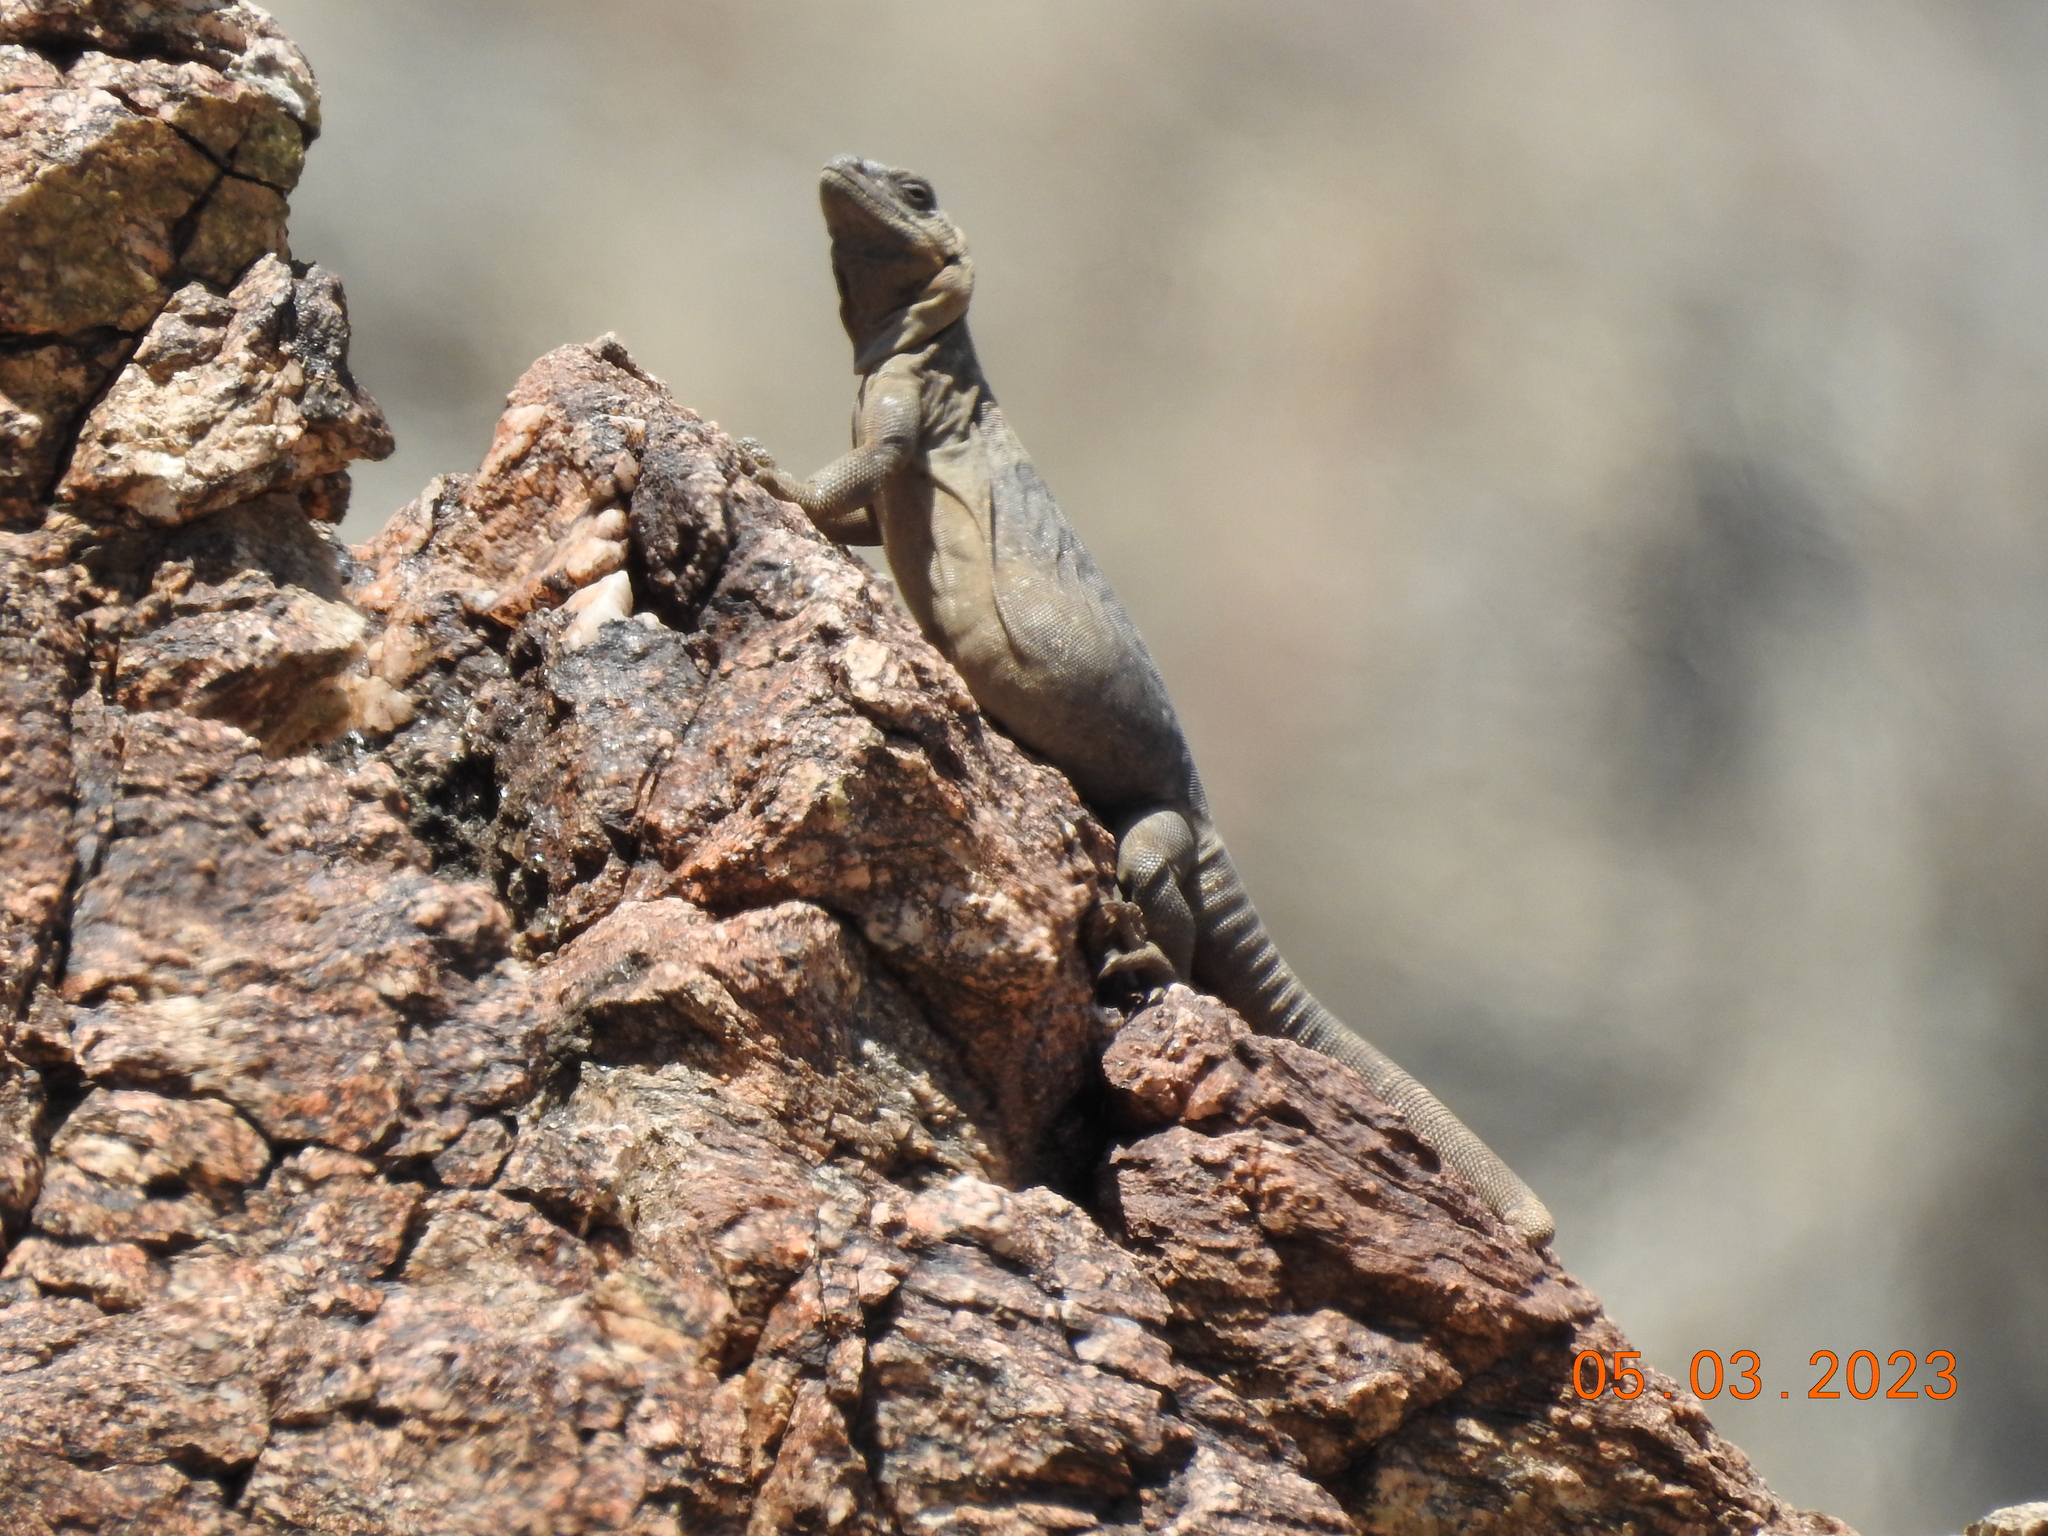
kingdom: Animalia
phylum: Chordata
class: Squamata
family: Iguanidae
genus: Sauromalus
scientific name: Sauromalus ater
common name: Northern chuckwalla
